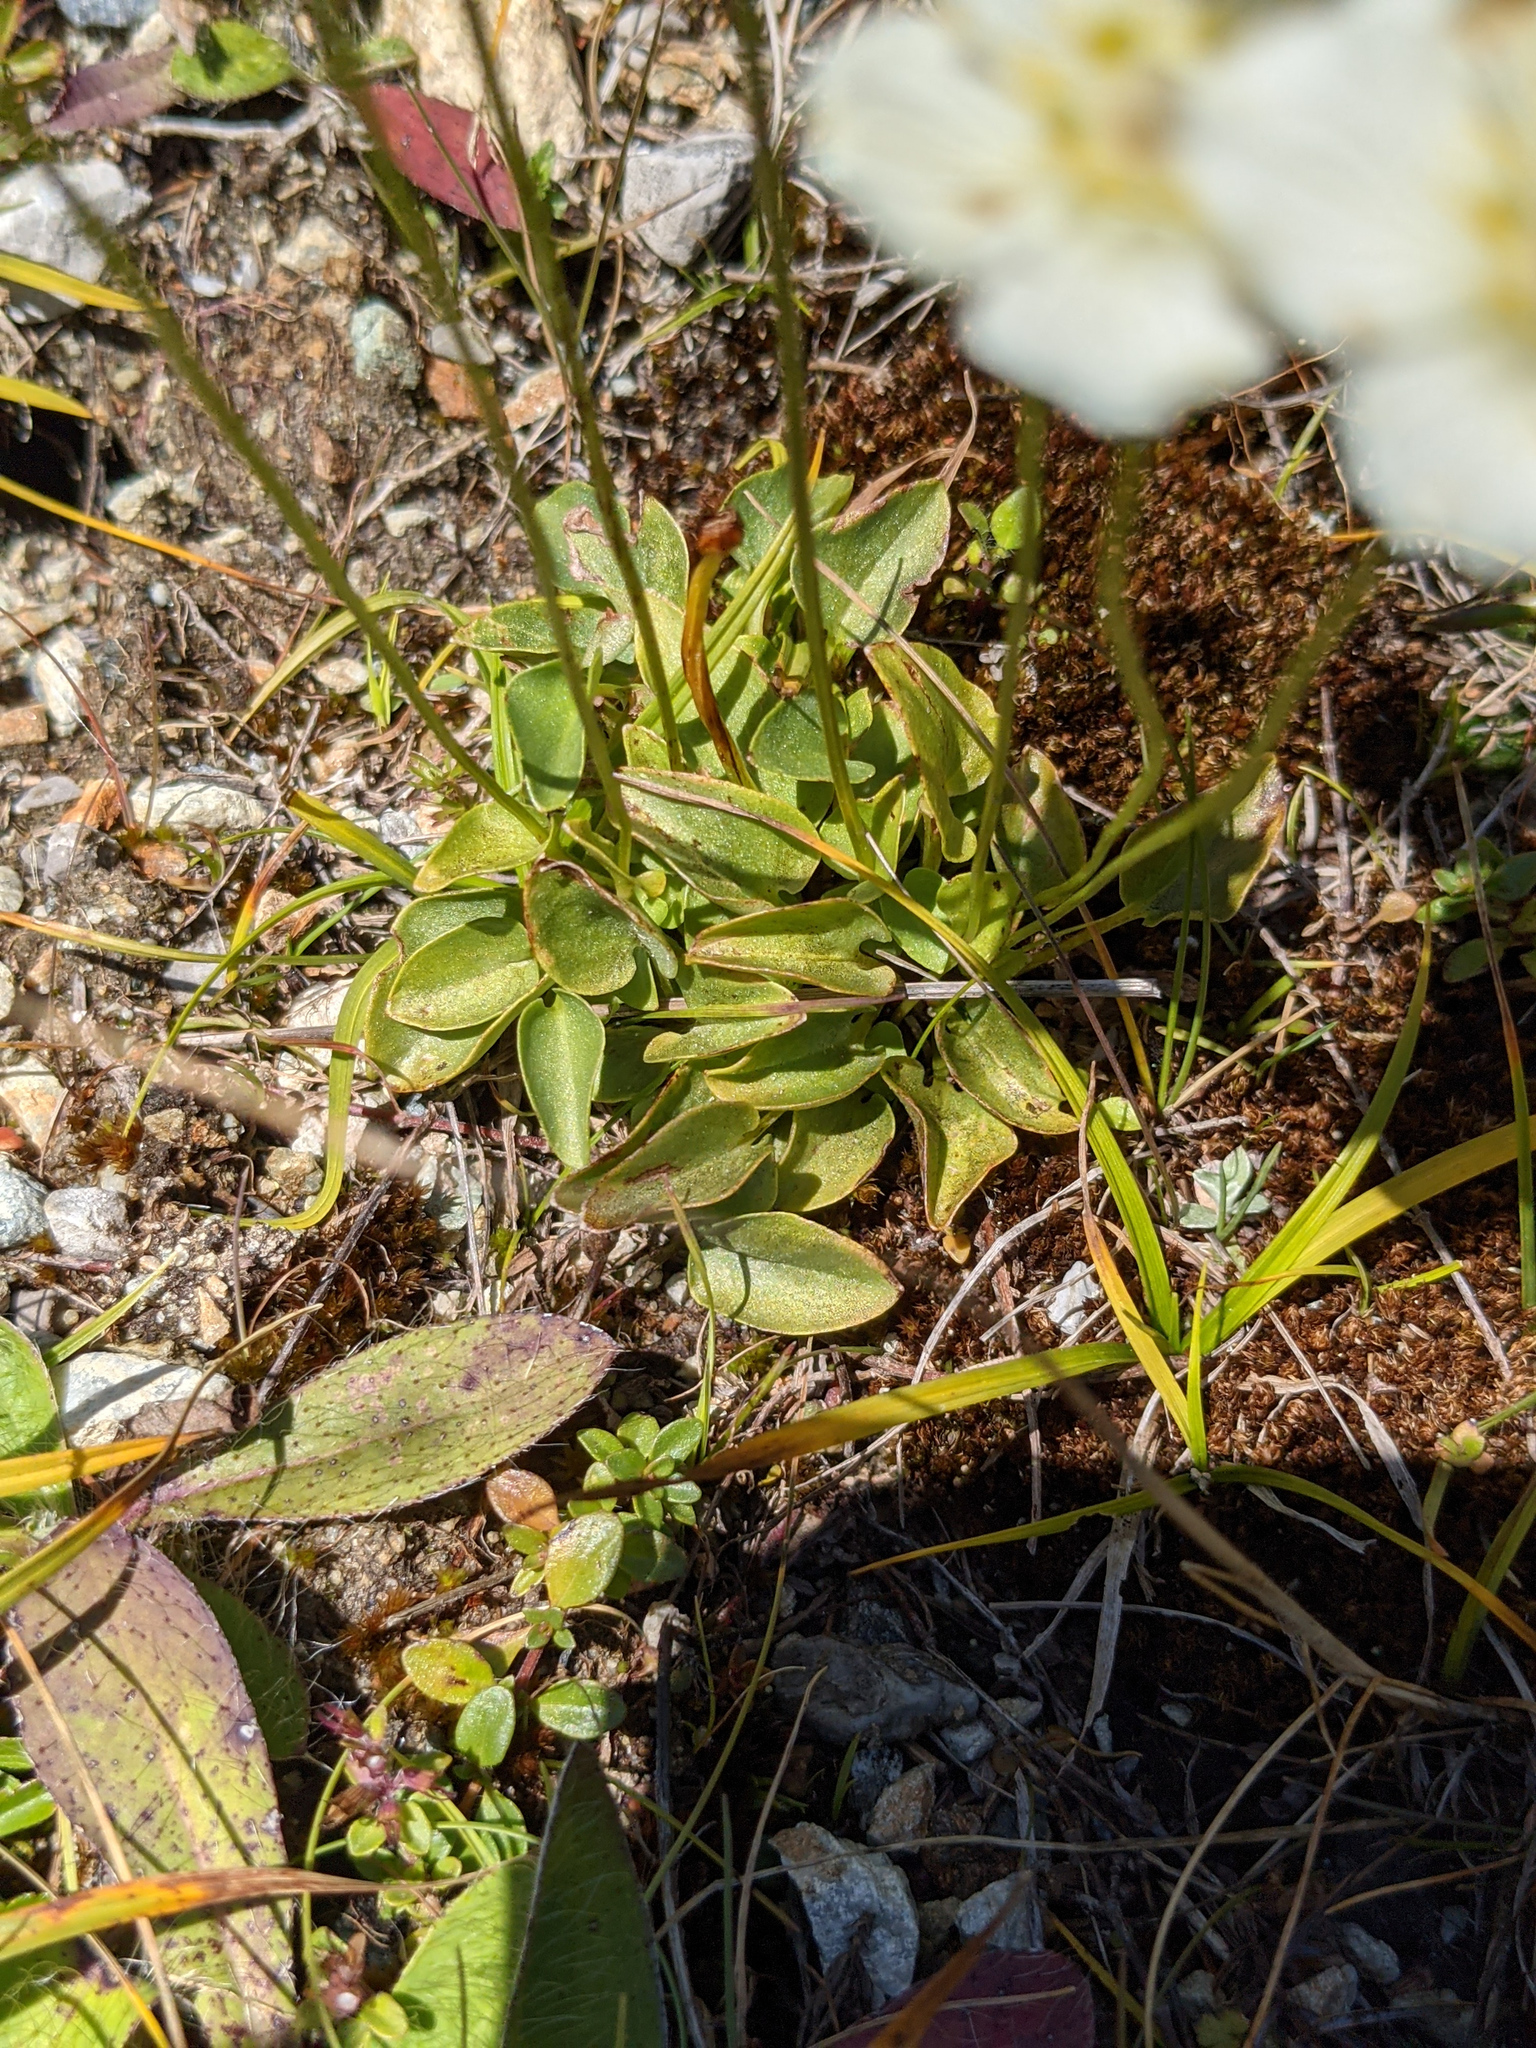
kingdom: Plantae
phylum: Tracheophyta
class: Magnoliopsida
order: Celastrales
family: Parnassiaceae
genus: Parnassia
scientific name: Parnassia palustris
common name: Grass-of-parnassus
